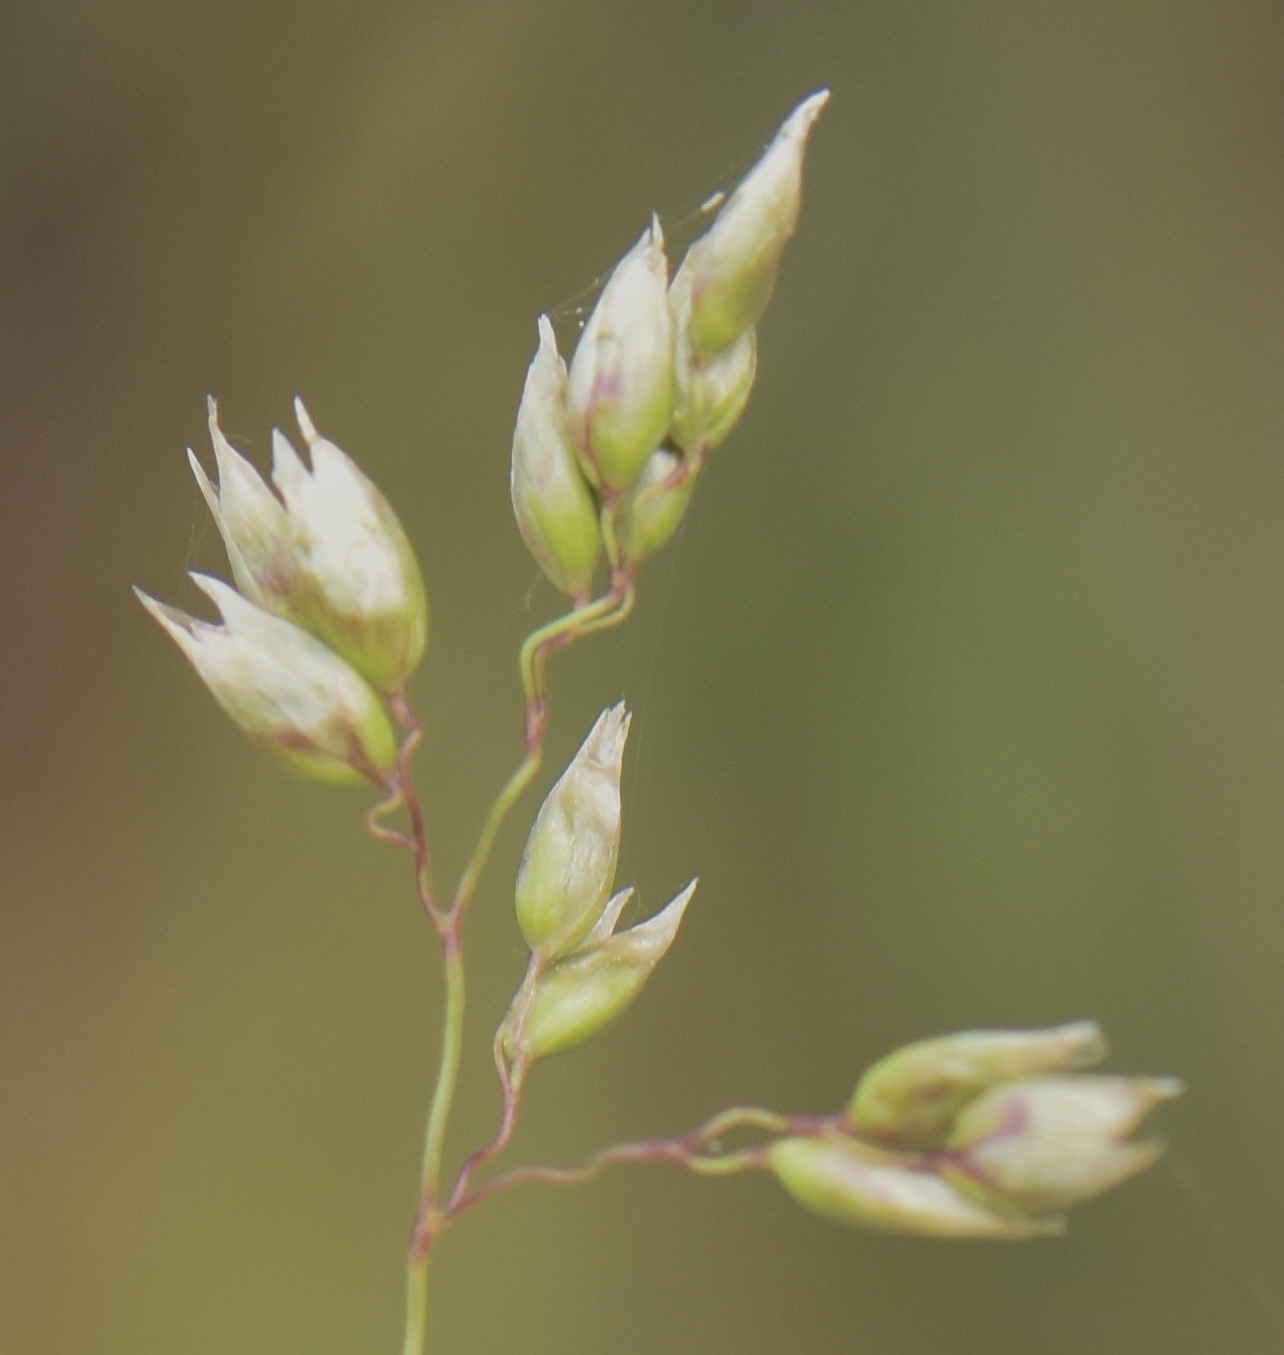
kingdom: Plantae
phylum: Tracheophyta
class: Liliopsida
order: Poales
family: Poaceae
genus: Anthoxanthum
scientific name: Anthoxanthum nitens
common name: Holy grass
